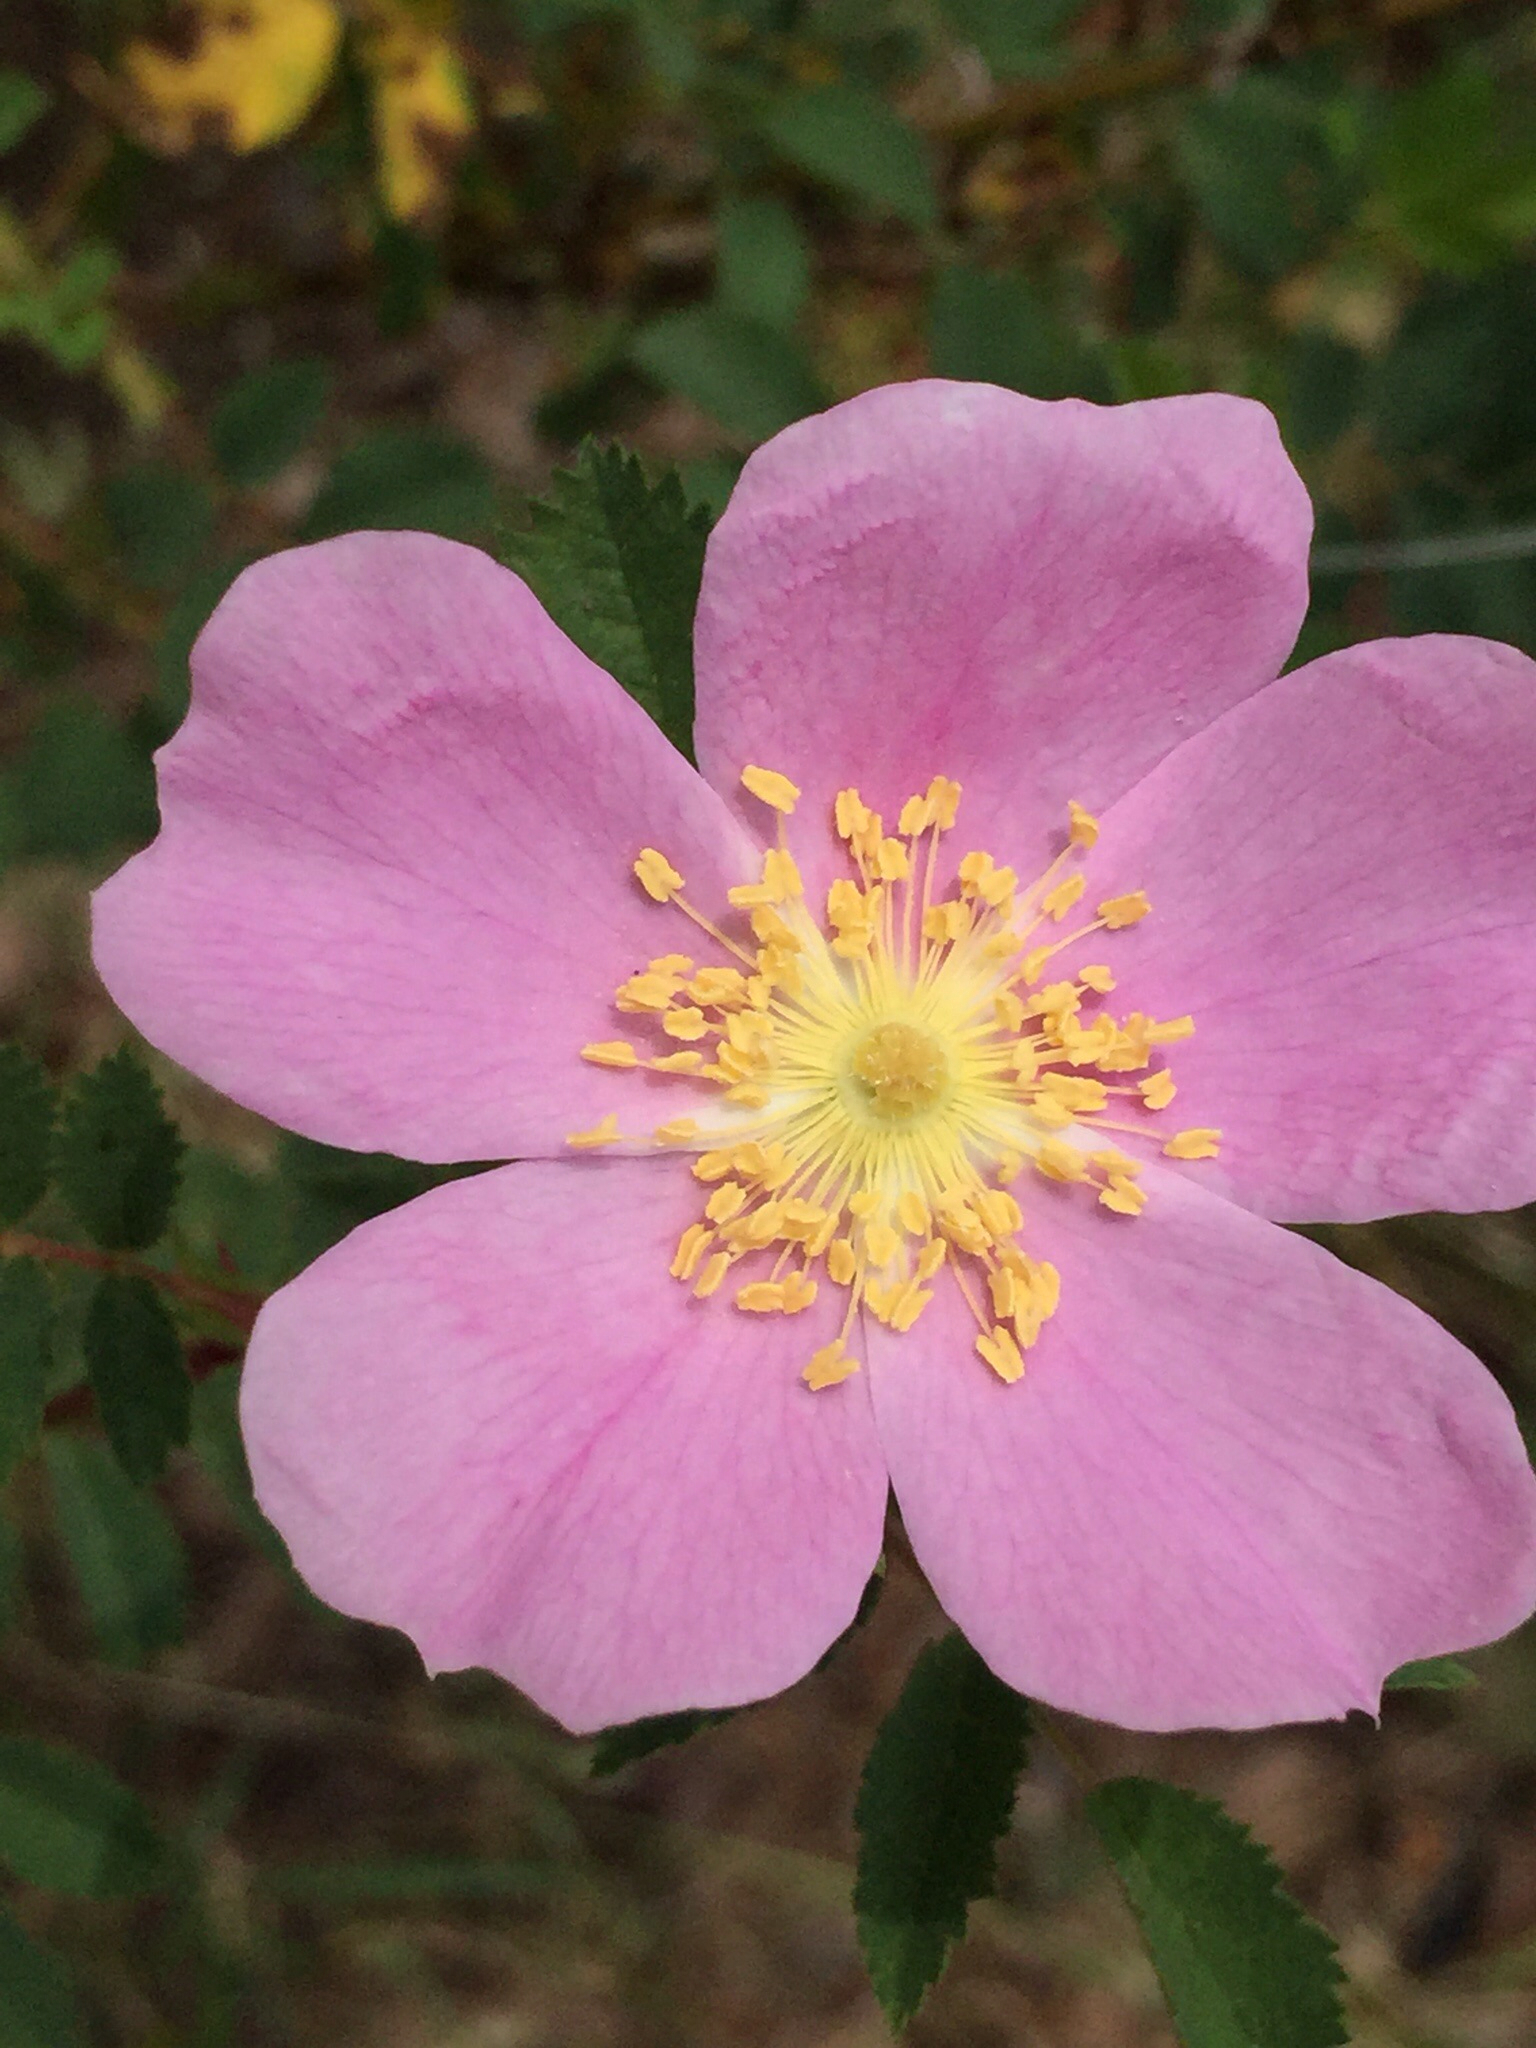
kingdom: Plantae
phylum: Tracheophyta
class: Magnoliopsida
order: Rosales
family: Rosaceae
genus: Rosa
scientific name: Rosa californica
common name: California rose
